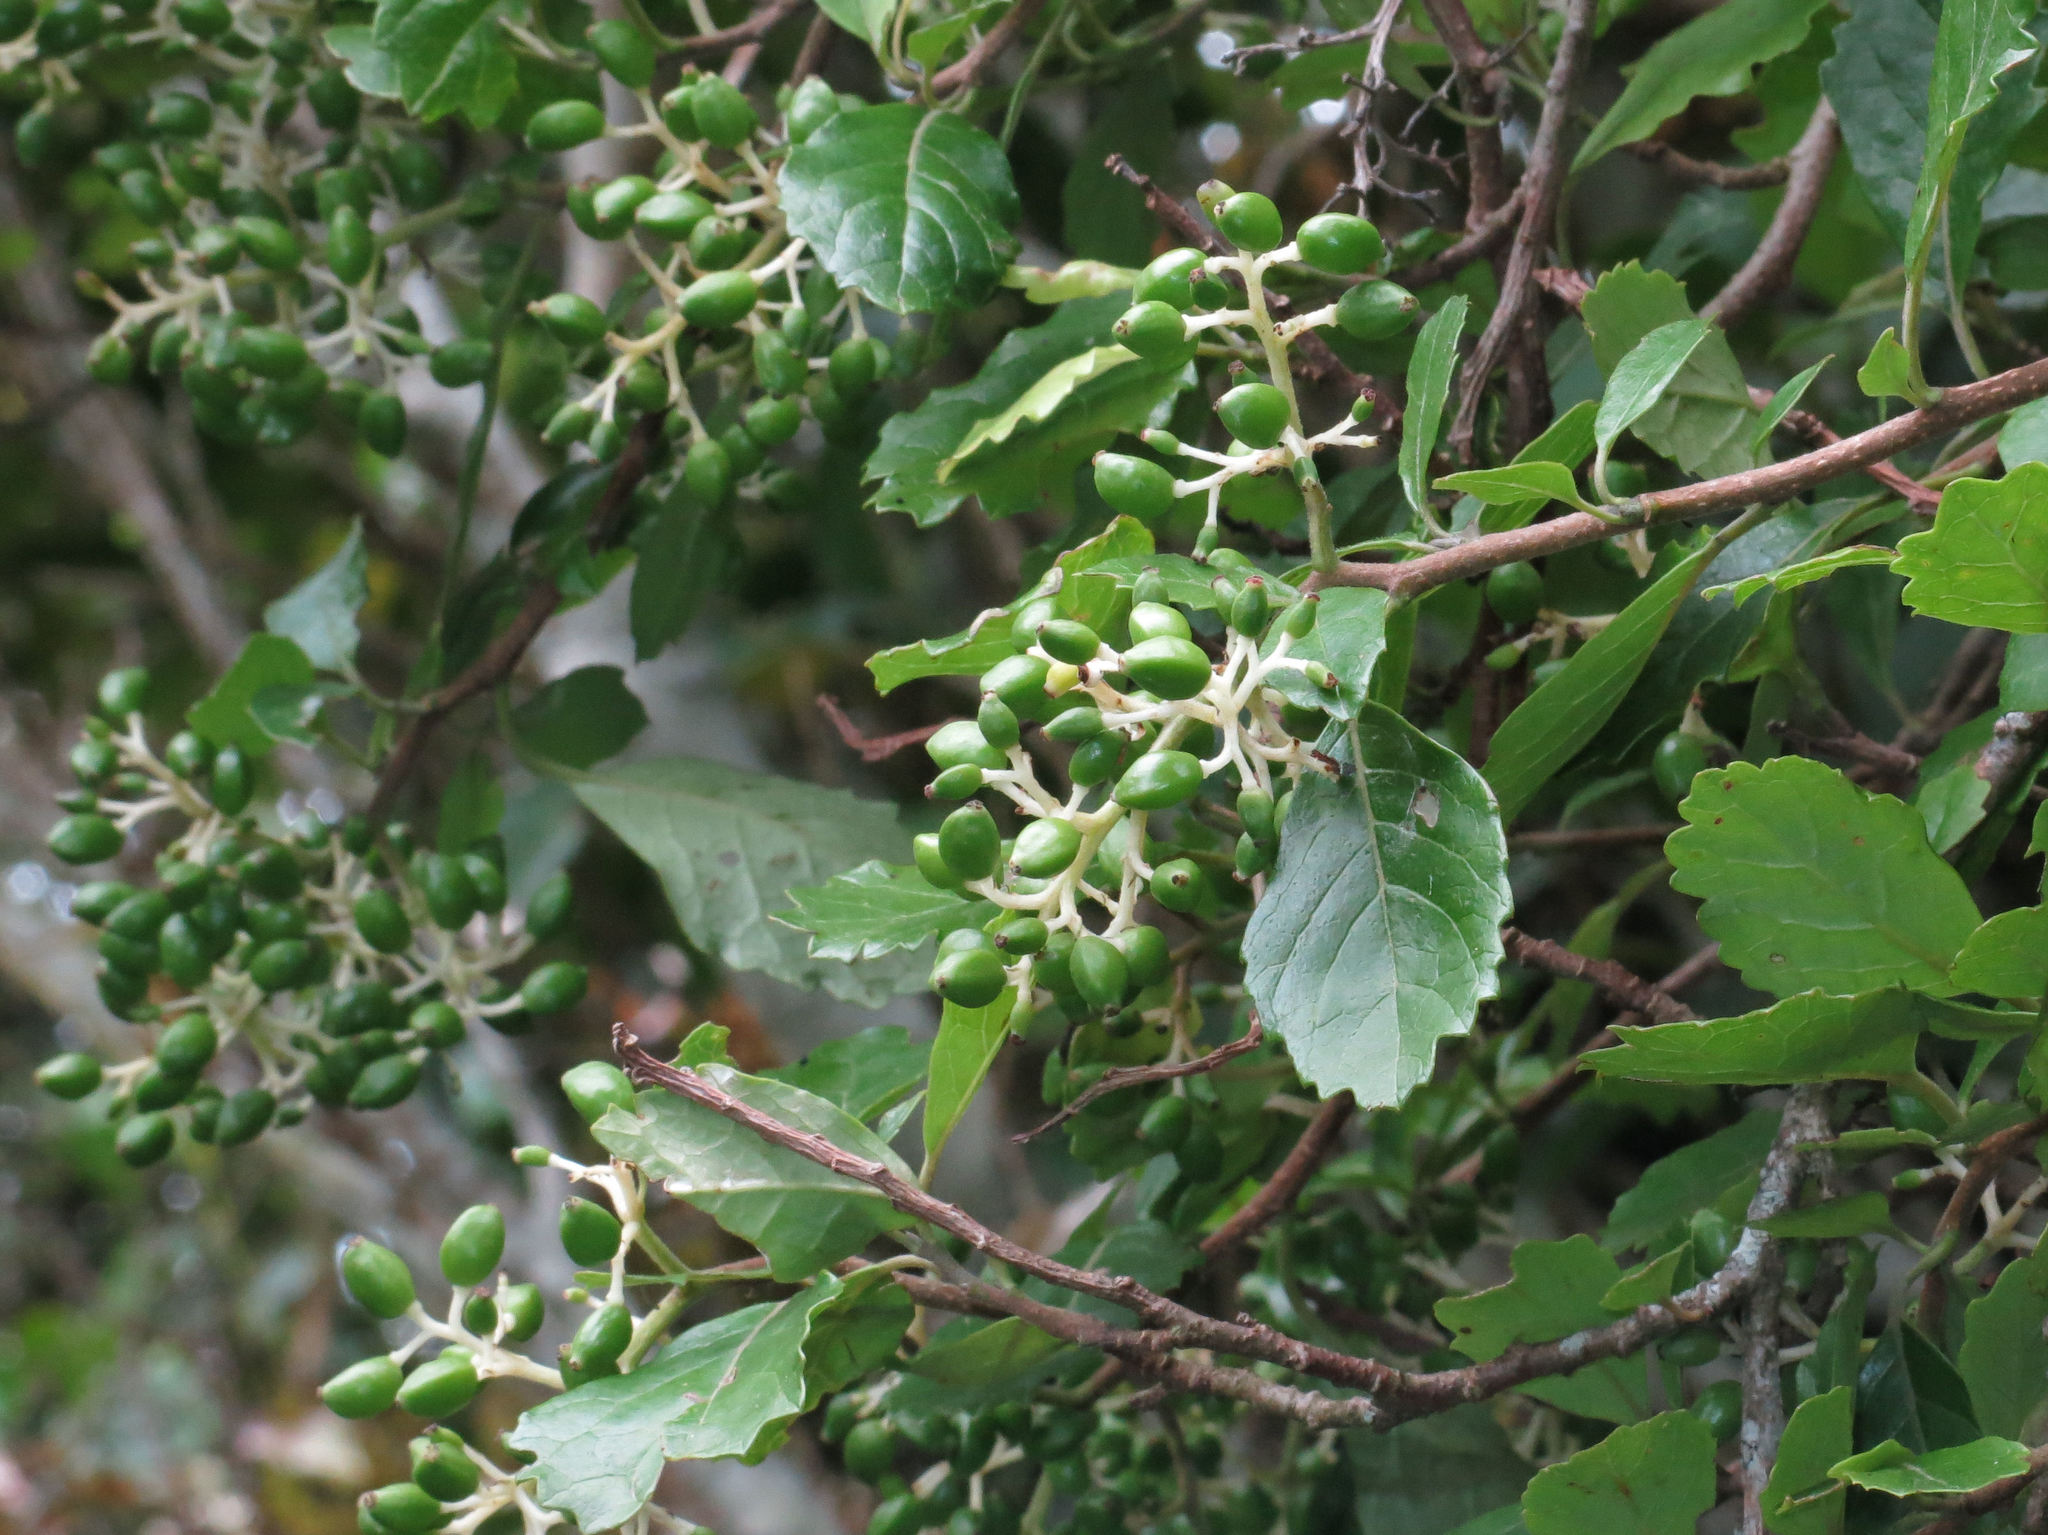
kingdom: Plantae
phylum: Tracheophyta
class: Magnoliopsida
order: Apiales
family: Pennantiaceae
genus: Pennantia
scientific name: Pennantia corymbosa
